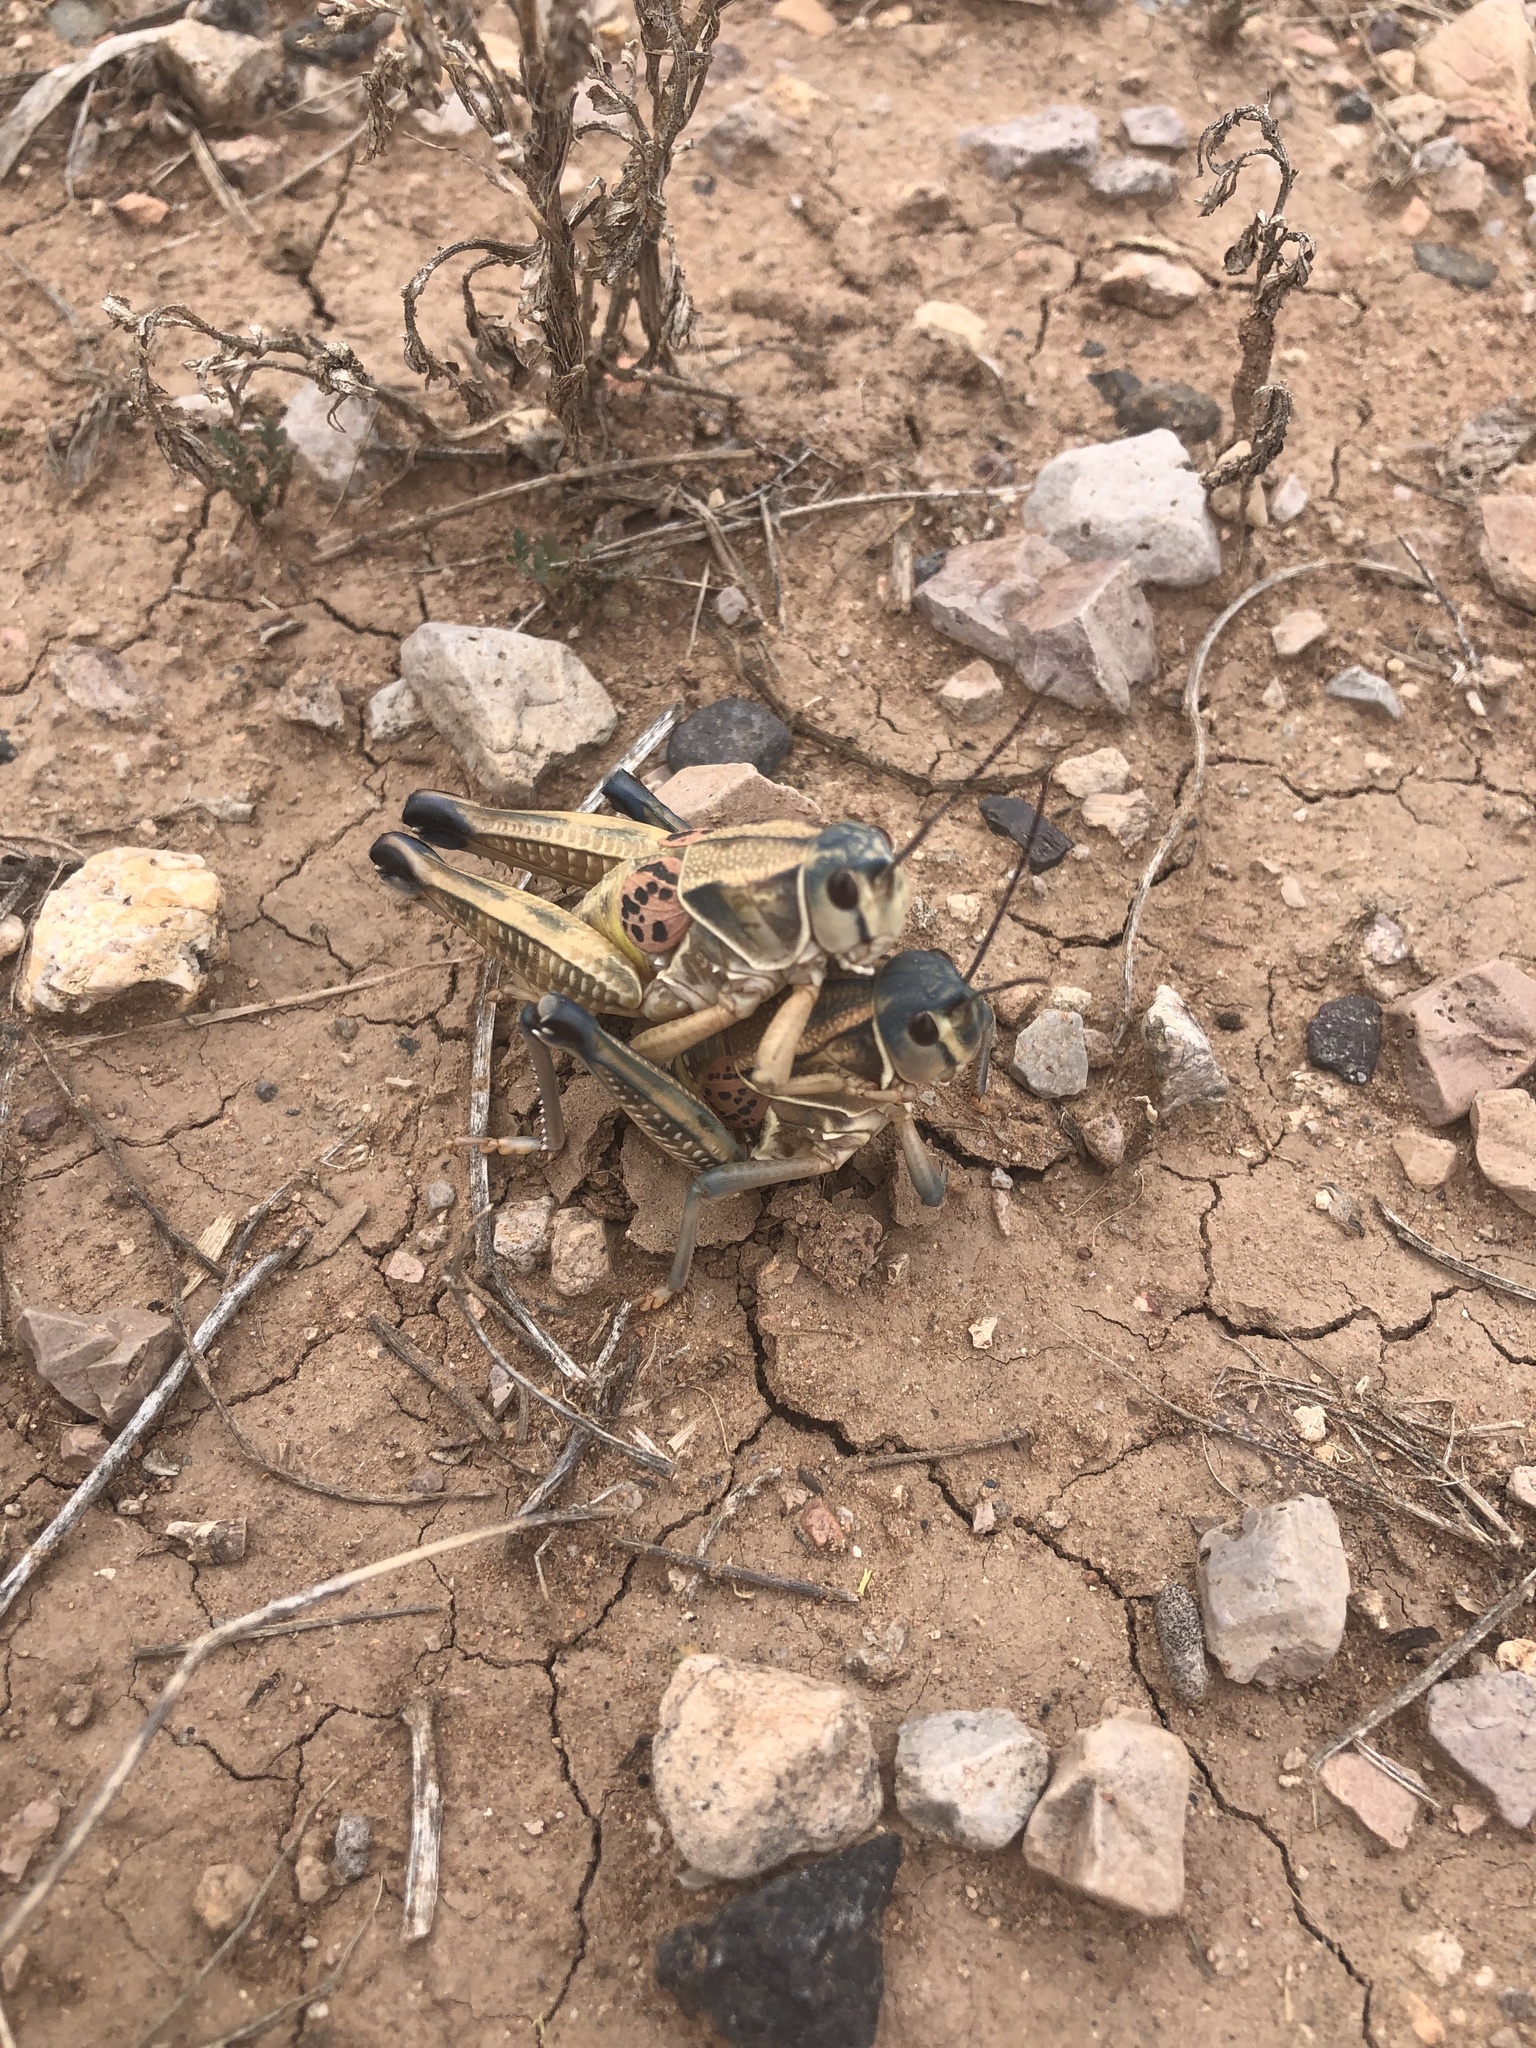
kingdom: Animalia
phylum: Arthropoda
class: Insecta
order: Orthoptera
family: Romaleidae
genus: Brachystola
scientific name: Brachystola magna
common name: Plains lubber grasshopper
